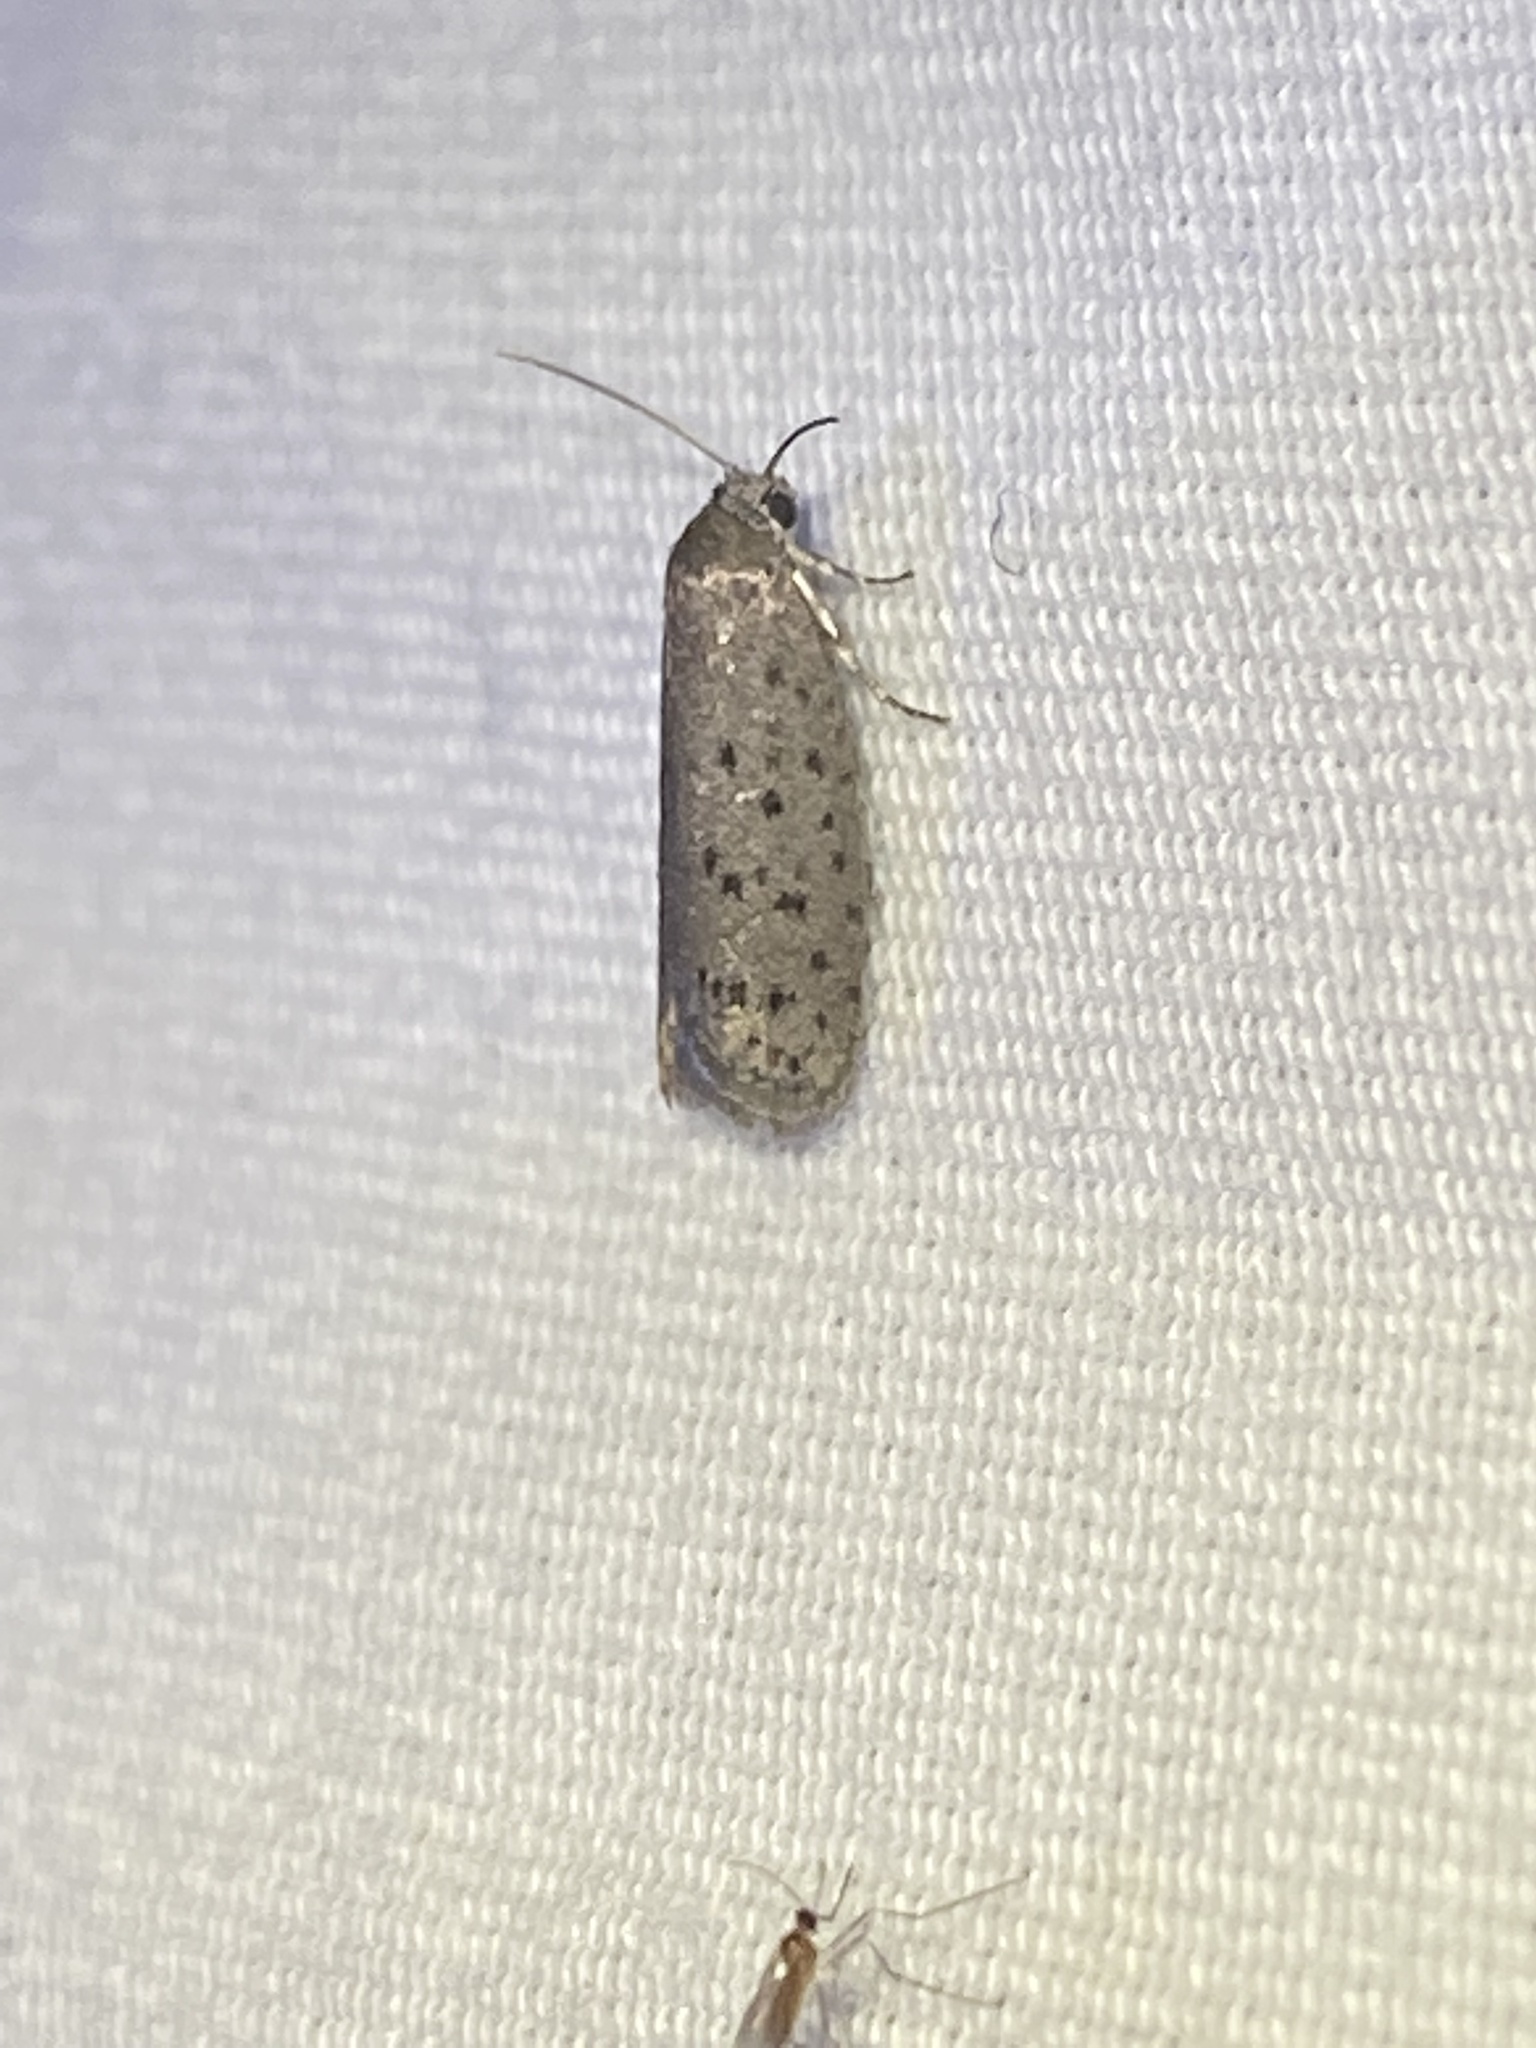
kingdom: Animalia
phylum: Arthropoda
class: Insecta
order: Lepidoptera
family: Galacticidae
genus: Homadaula
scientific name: Homadaula anisocentra
